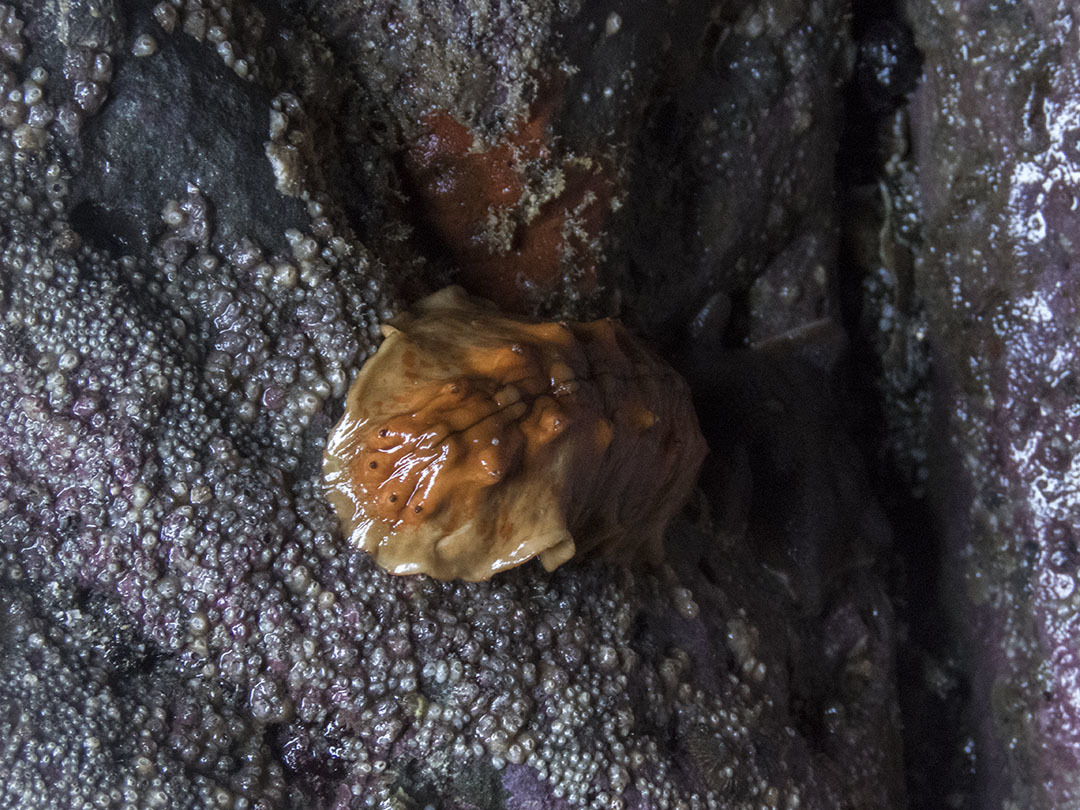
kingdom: Animalia
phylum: Mollusca
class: Polyplacophora
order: Chitonida
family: Acanthochitonidae
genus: Cryptoconchus
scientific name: Cryptoconchus porosus
